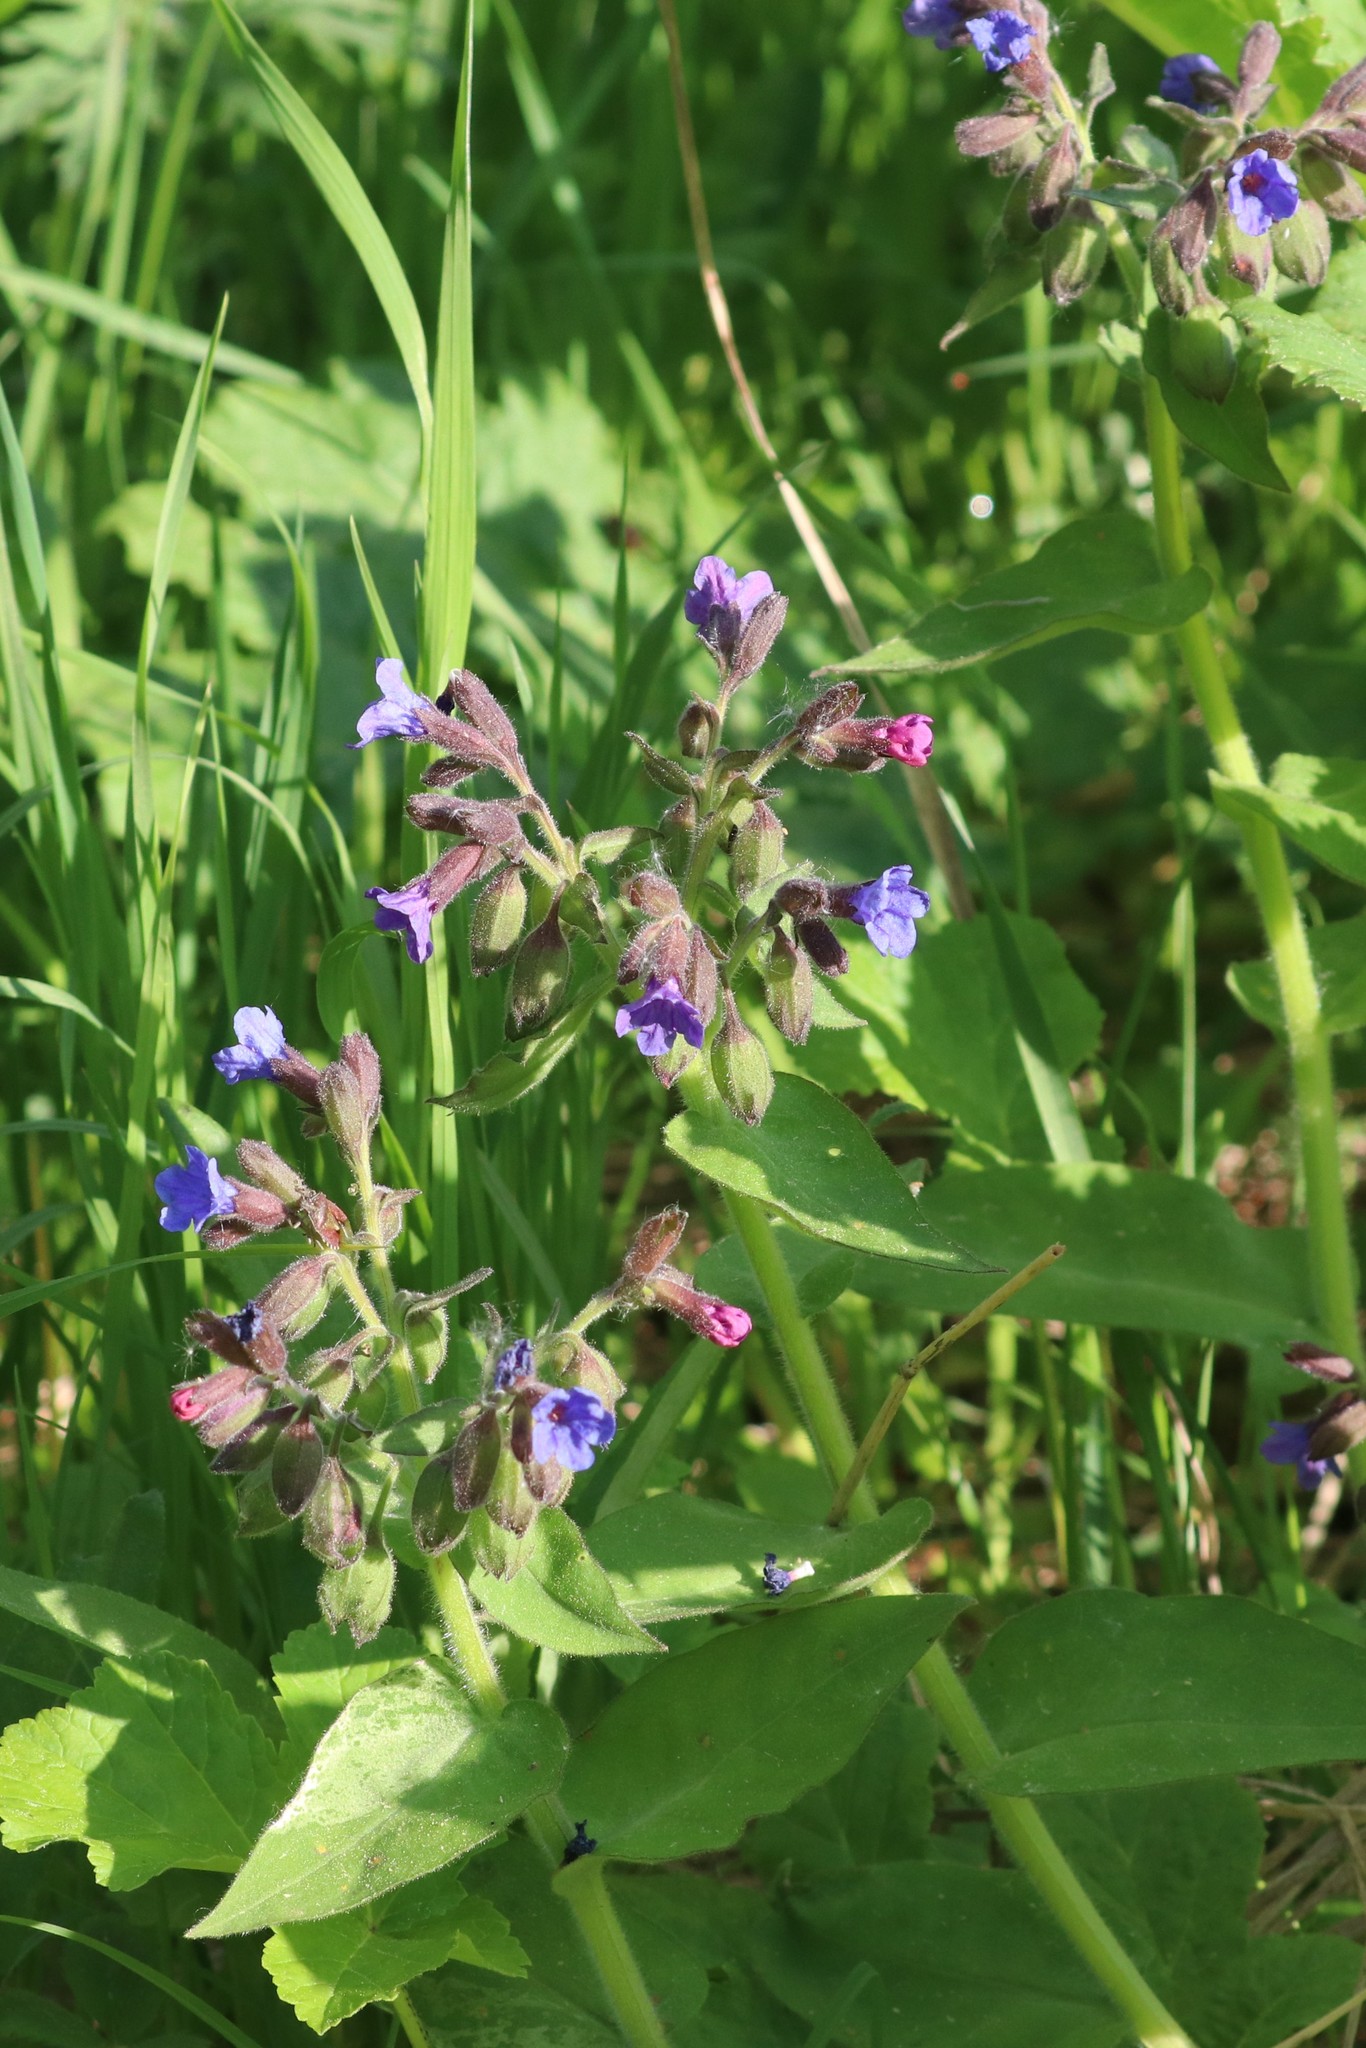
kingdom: Plantae
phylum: Tracheophyta
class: Magnoliopsida
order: Boraginales
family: Boraginaceae
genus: Pulmonaria
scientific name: Pulmonaria mollis
